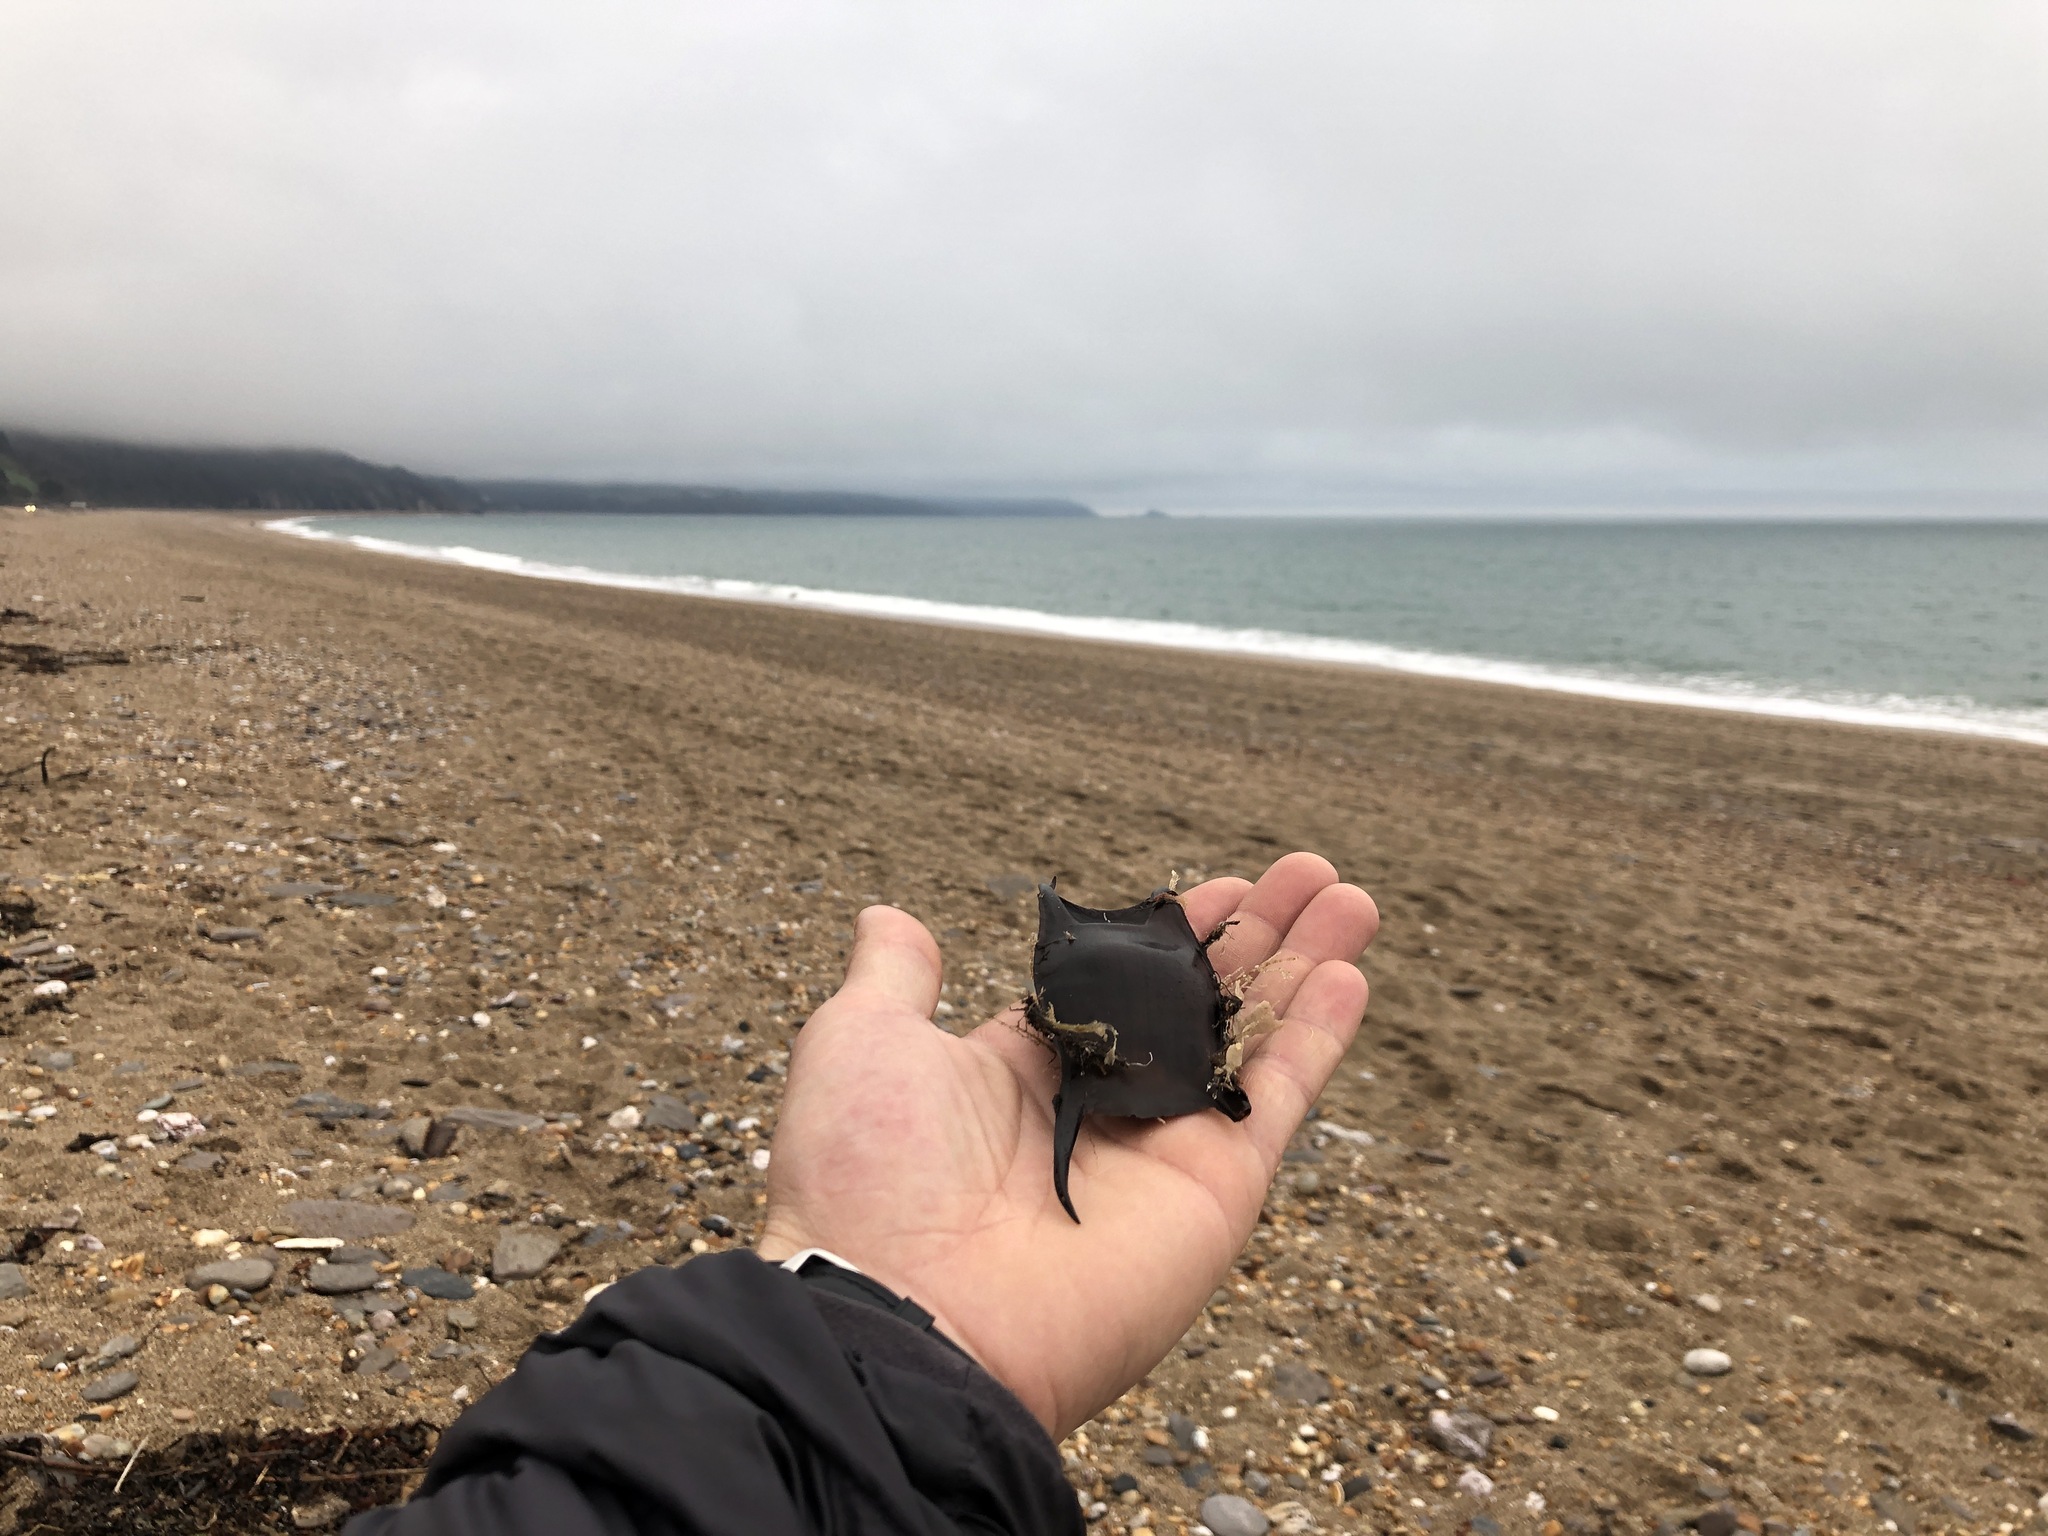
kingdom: Animalia
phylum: Chordata
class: Elasmobranchii
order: Rajiformes
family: Rajidae
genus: Raja
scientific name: Raja undulata
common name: Undulate ray
